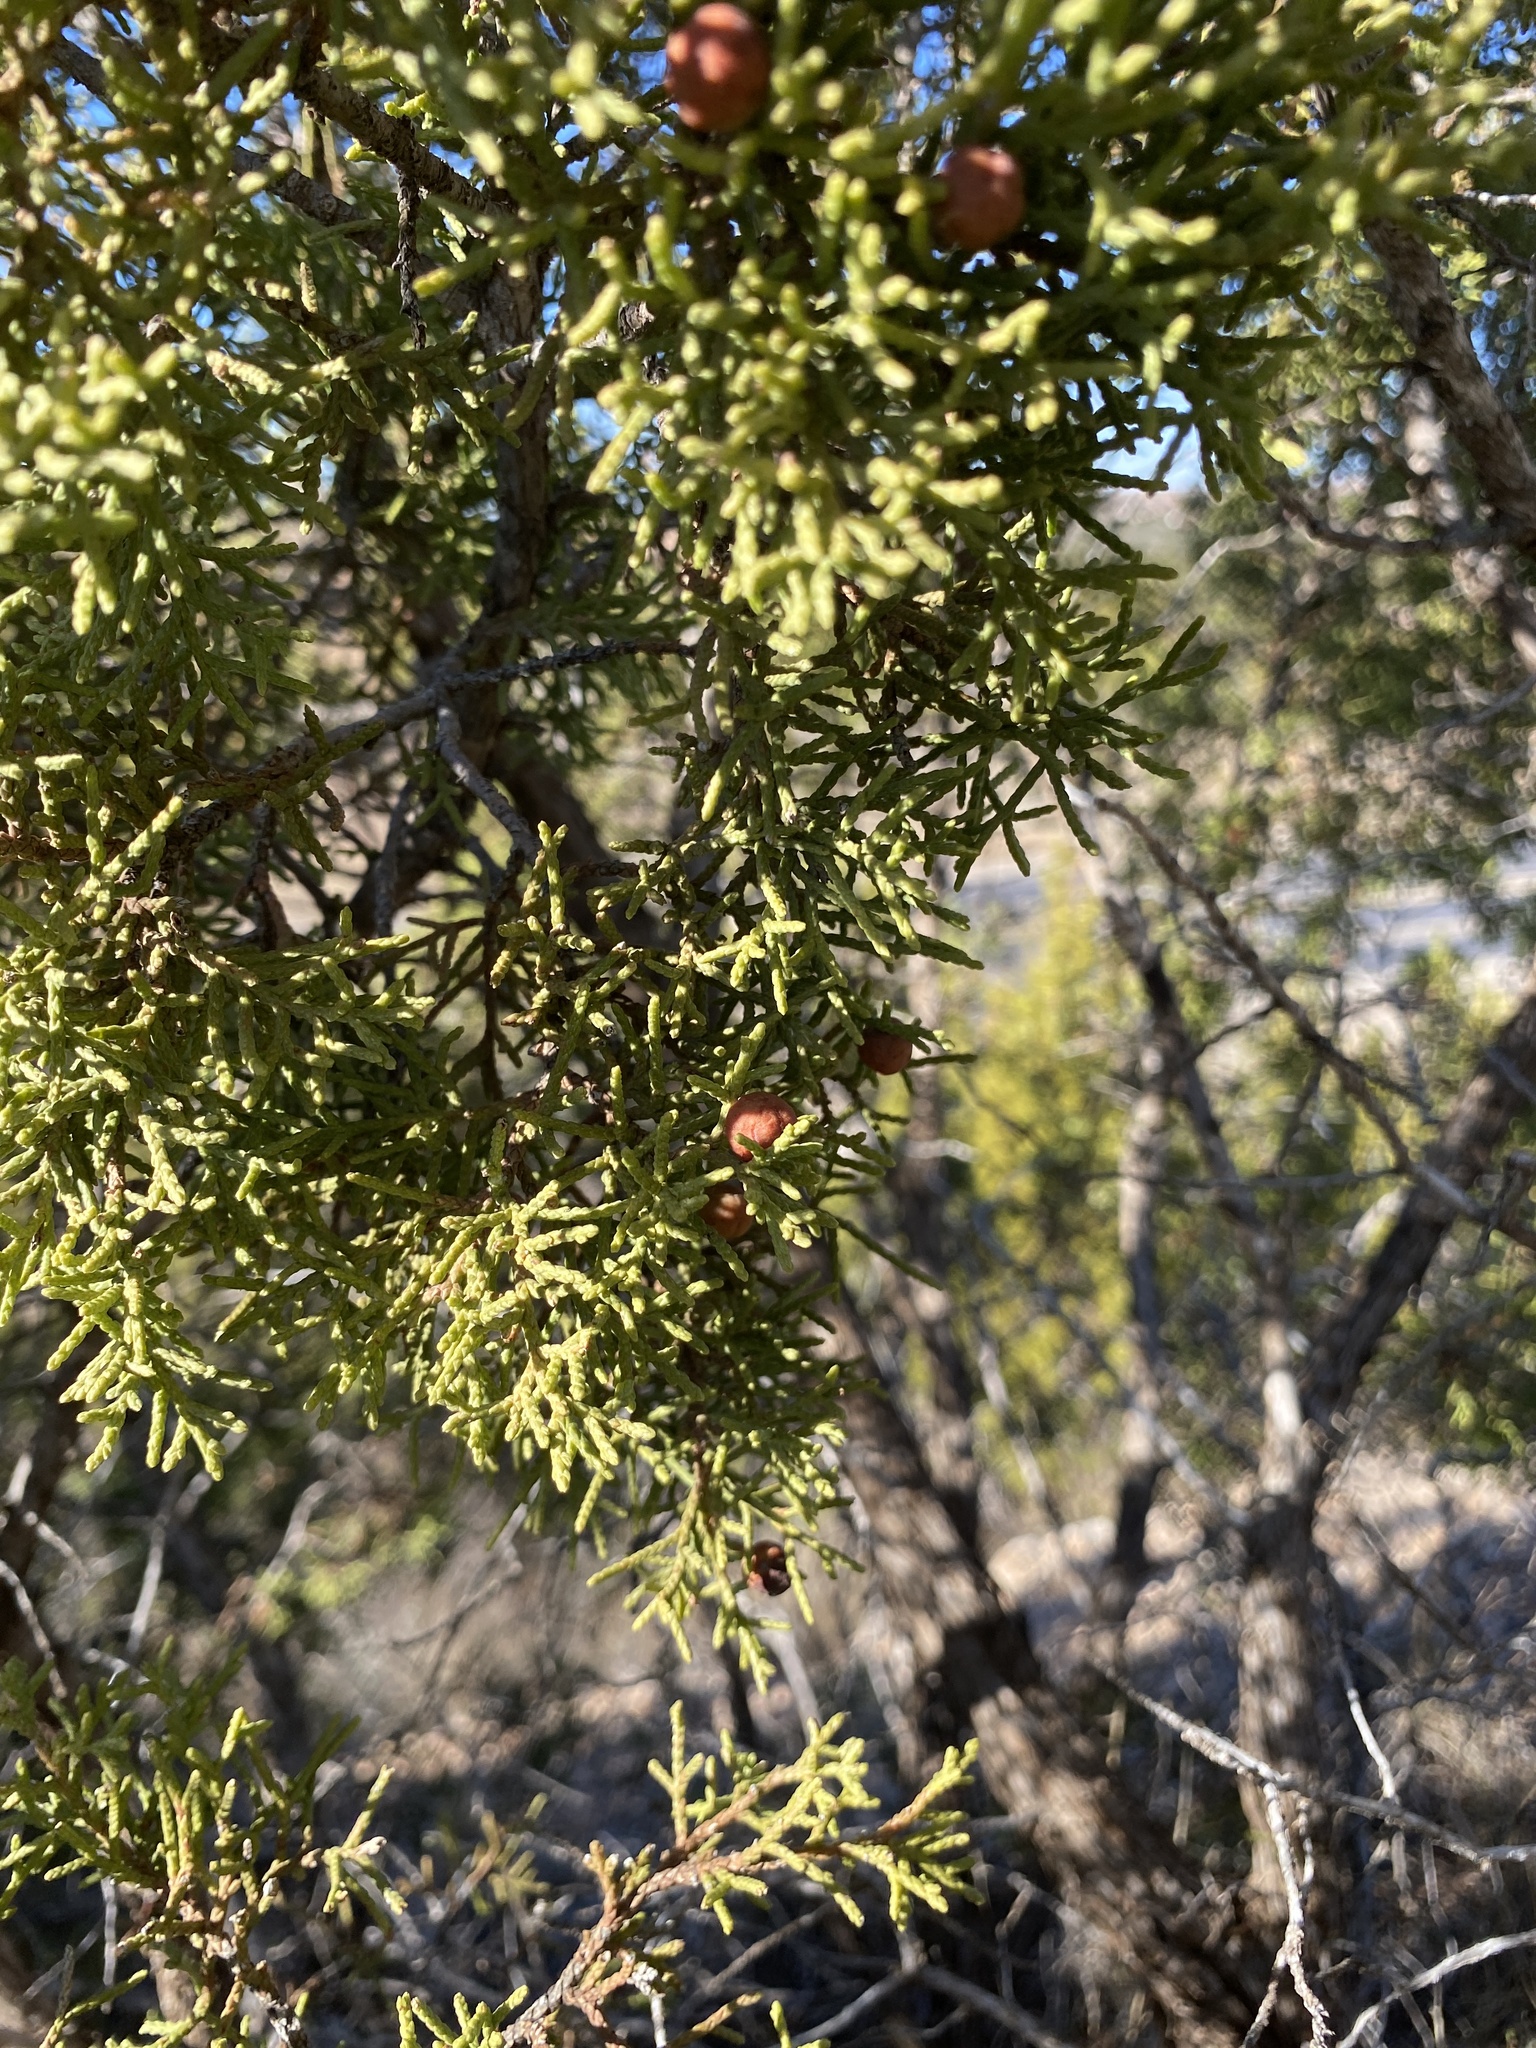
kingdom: Plantae
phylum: Tracheophyta
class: Pinopsida
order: Pinales
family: Cupressaceae
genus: Juniperus
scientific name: Juniperus pinchotii
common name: Pinchot juniper
